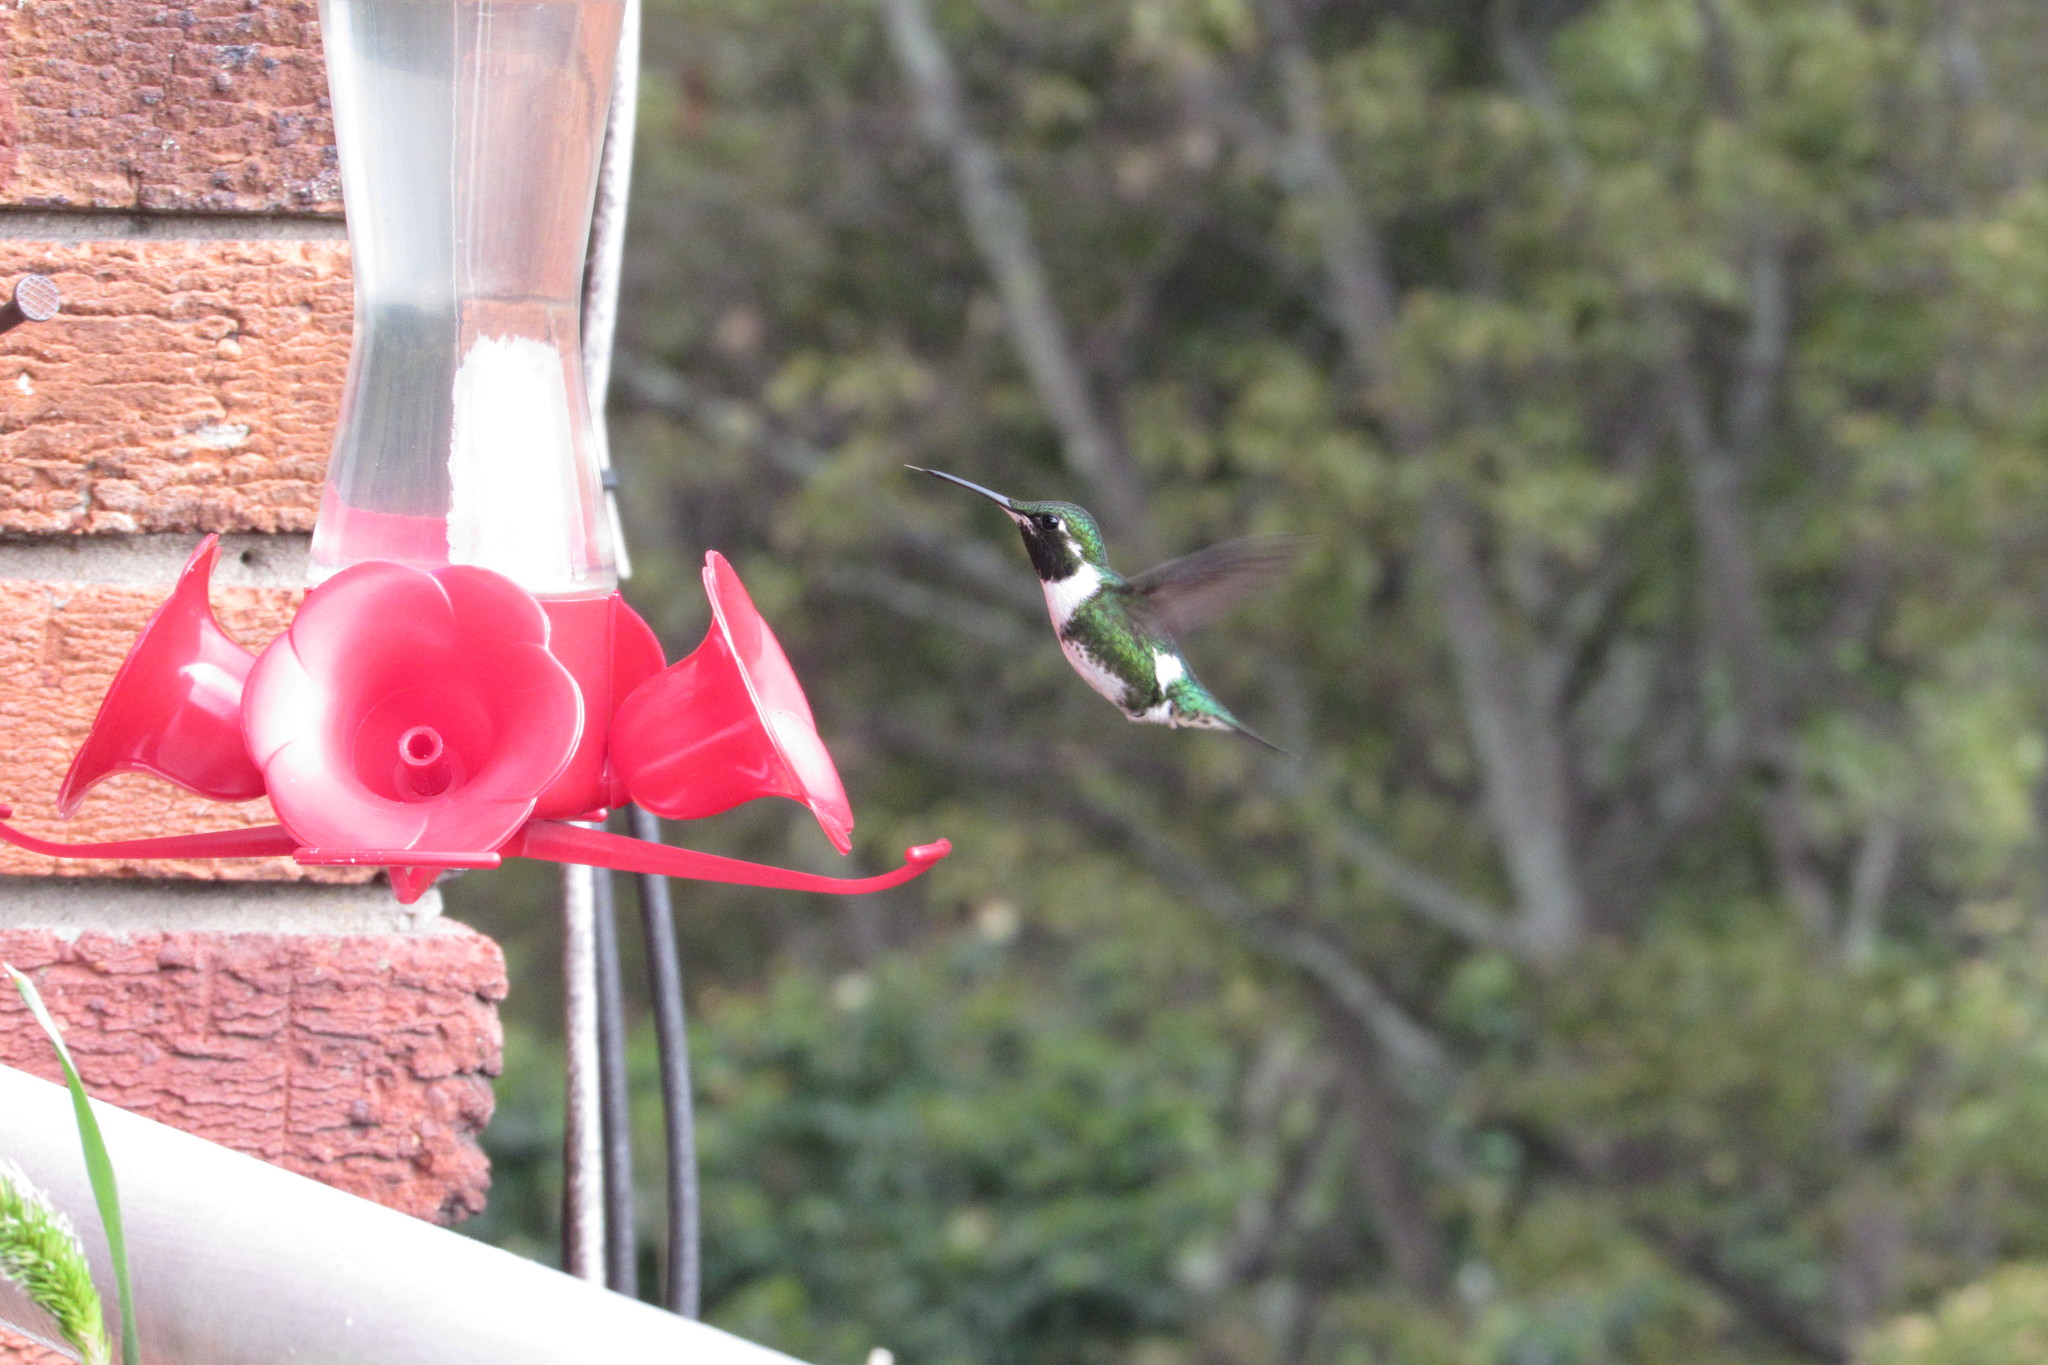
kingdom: Animalia
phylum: Chordata
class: Aves
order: Apodiformes
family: Trochilidae
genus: Chaetocercus
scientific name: Chaetocercus mulsant
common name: White-bellied woodstar
